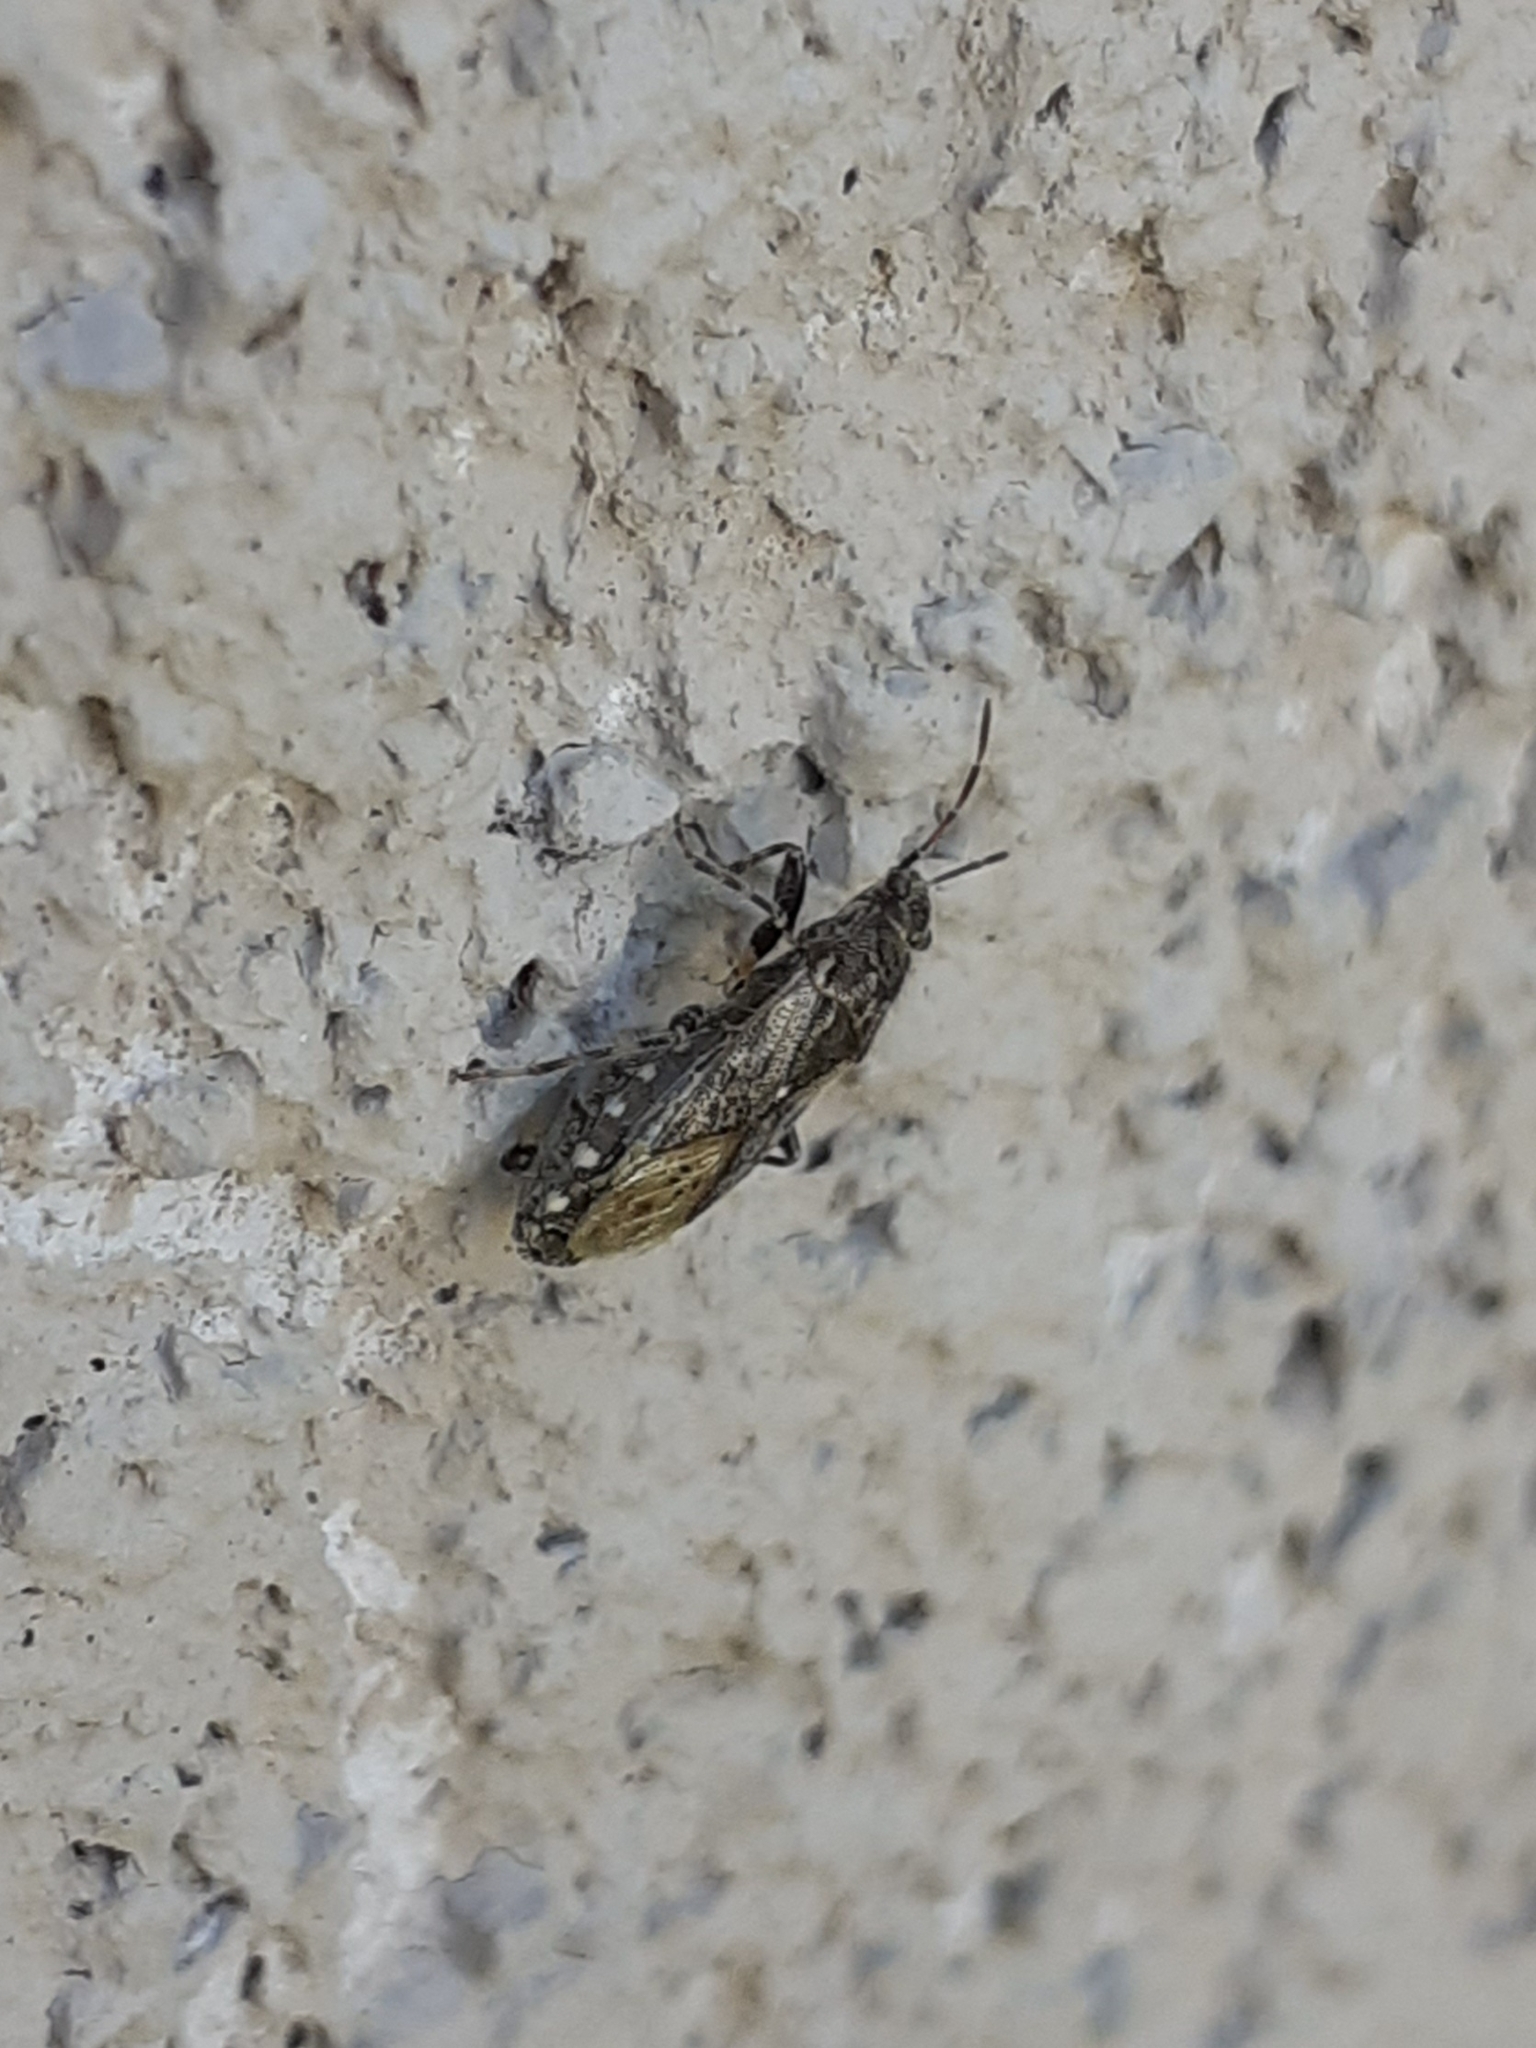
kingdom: Animalia
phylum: Arthropoda
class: Insecta
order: Hemiptera
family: Heterogastridae
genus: Heterogaster
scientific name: Heterogaster urticae
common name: Seed bug
